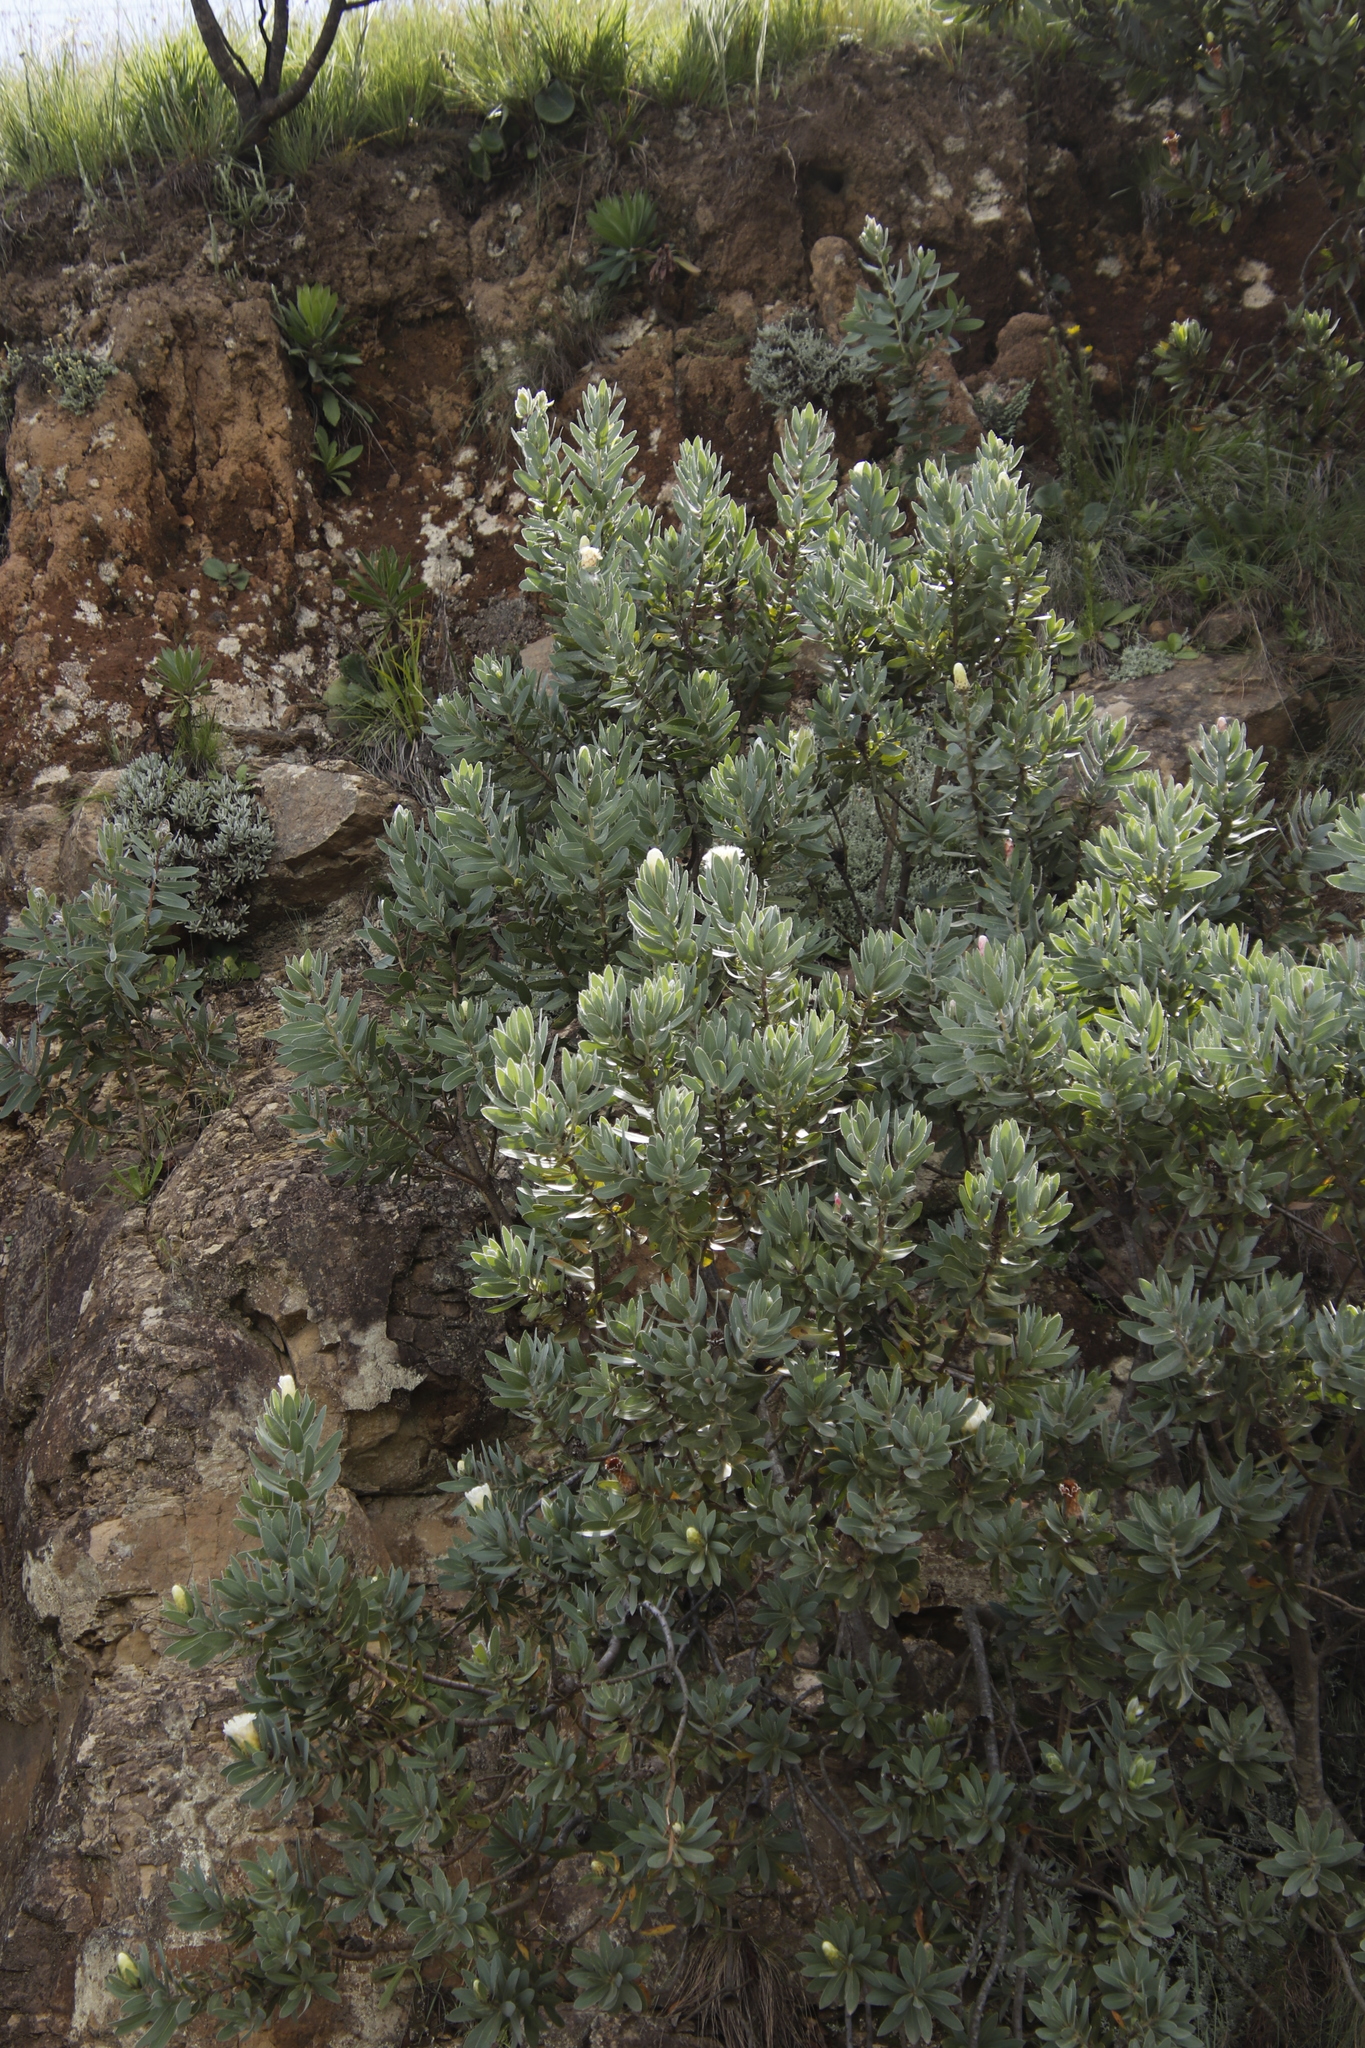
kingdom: Plantae
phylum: Tracheophyta
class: Magnoliopsida
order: Proteales
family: Proteaceae
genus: Protea
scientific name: Protea subvestita
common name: Lip-flower sugarbush
